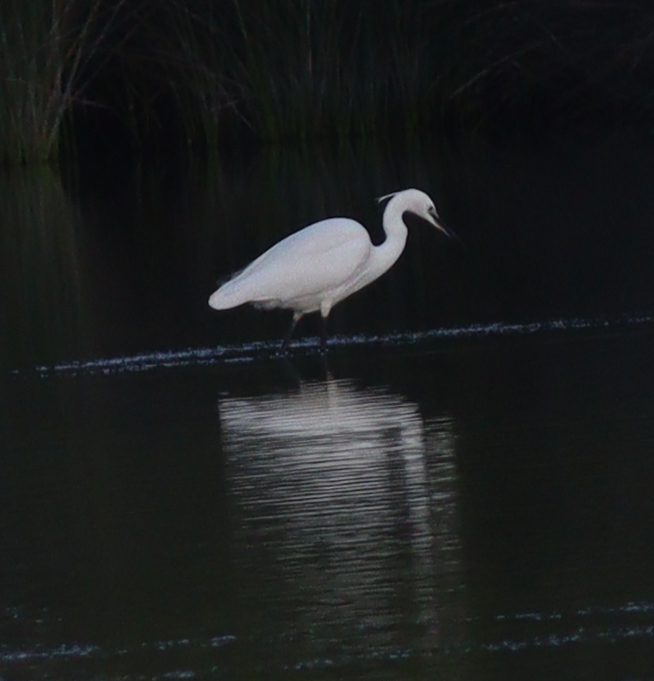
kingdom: Animalia
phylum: Chordata
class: Aves
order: Pelecaniformes
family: Ardeidae
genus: Egretta
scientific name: Egretta garzetta
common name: Little egret
